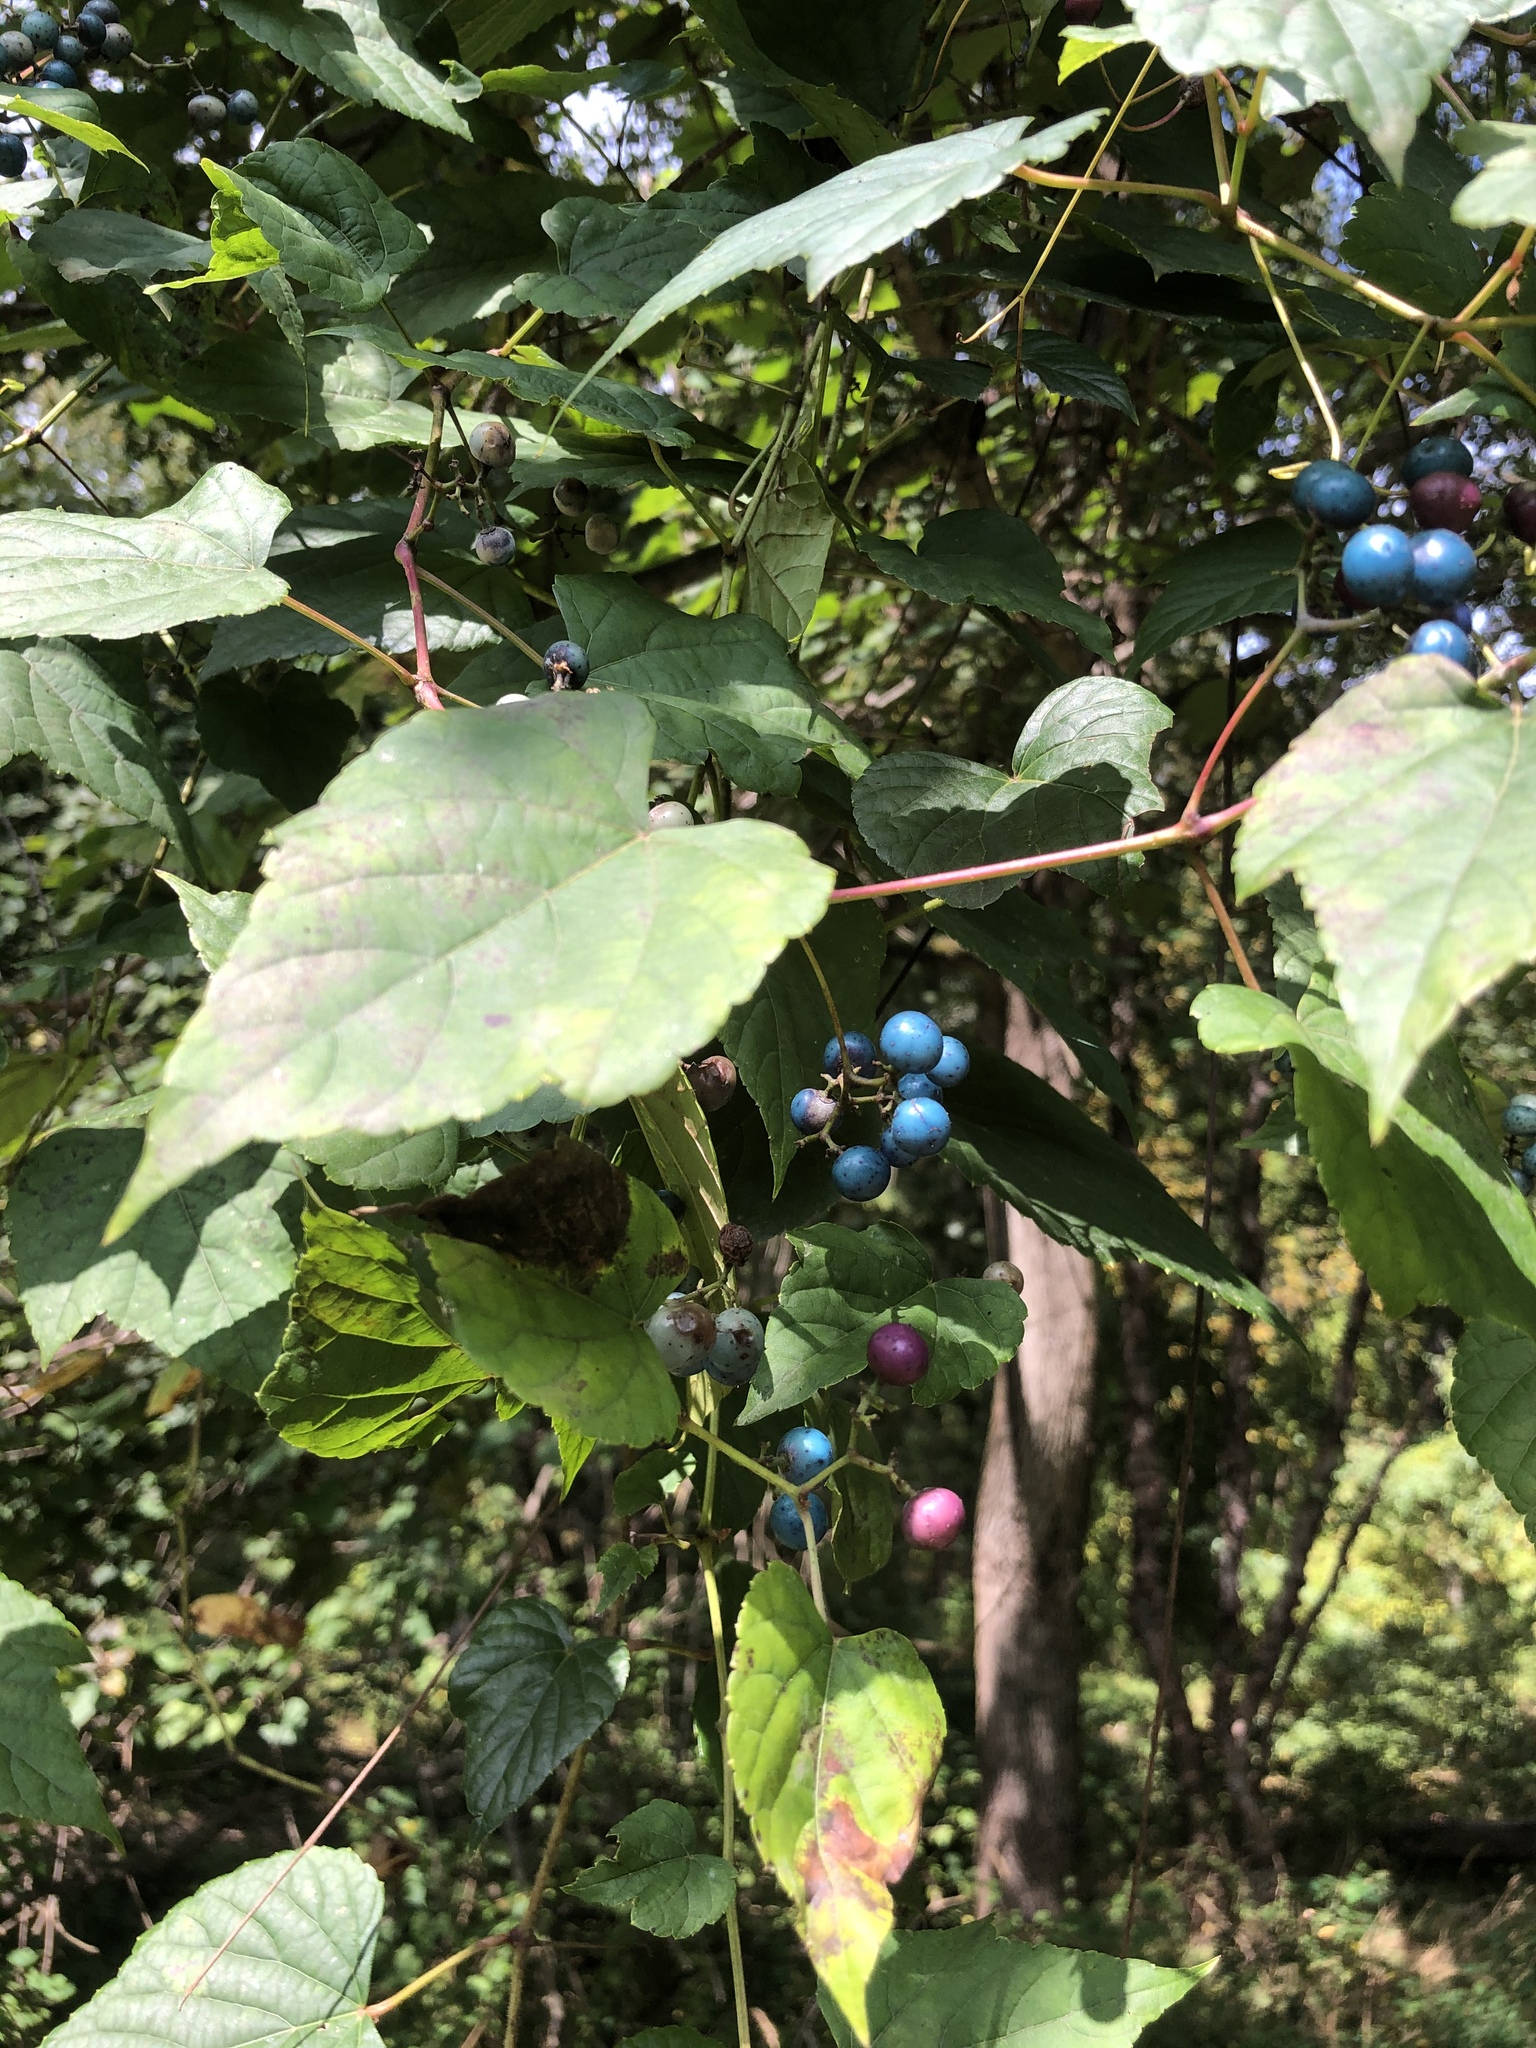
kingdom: Plantae
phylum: Tracheophyta
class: Magnoliopsida
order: Vitales
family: Vitaceae
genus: Ampelopsis
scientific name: Ampelopsis glandulosa
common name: Amur peppervine
